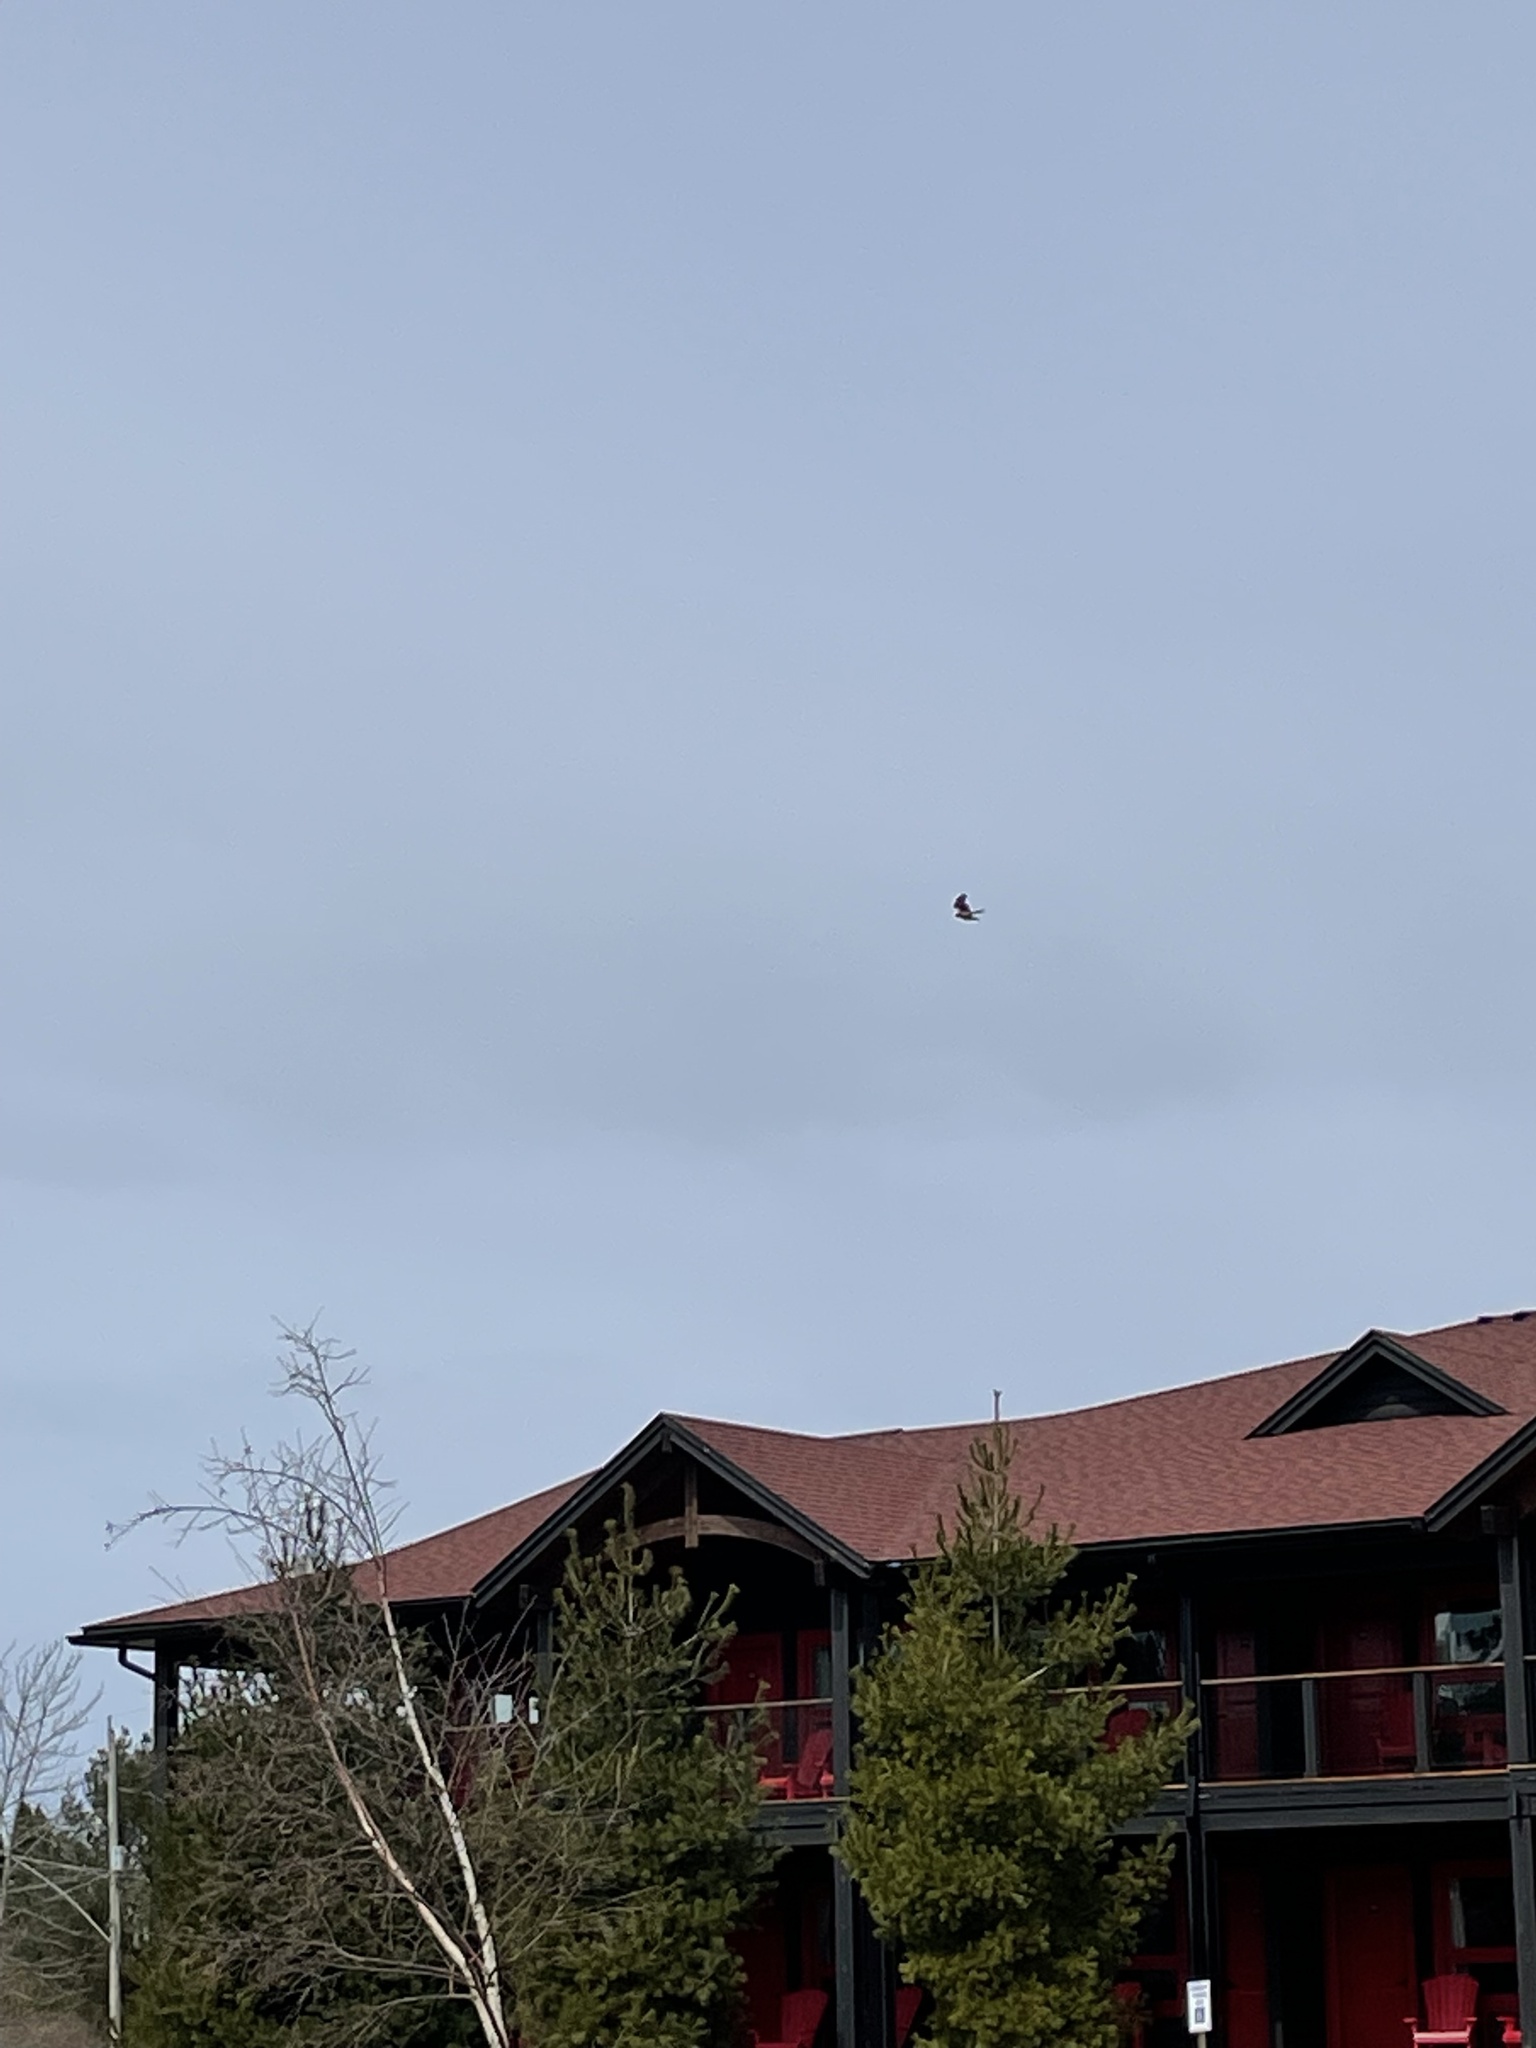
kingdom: Animalia
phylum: Chordata
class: Aves
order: Accipitriformes
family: Accipitridae
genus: Circus
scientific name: Circus cyaneus
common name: Hen harrier
